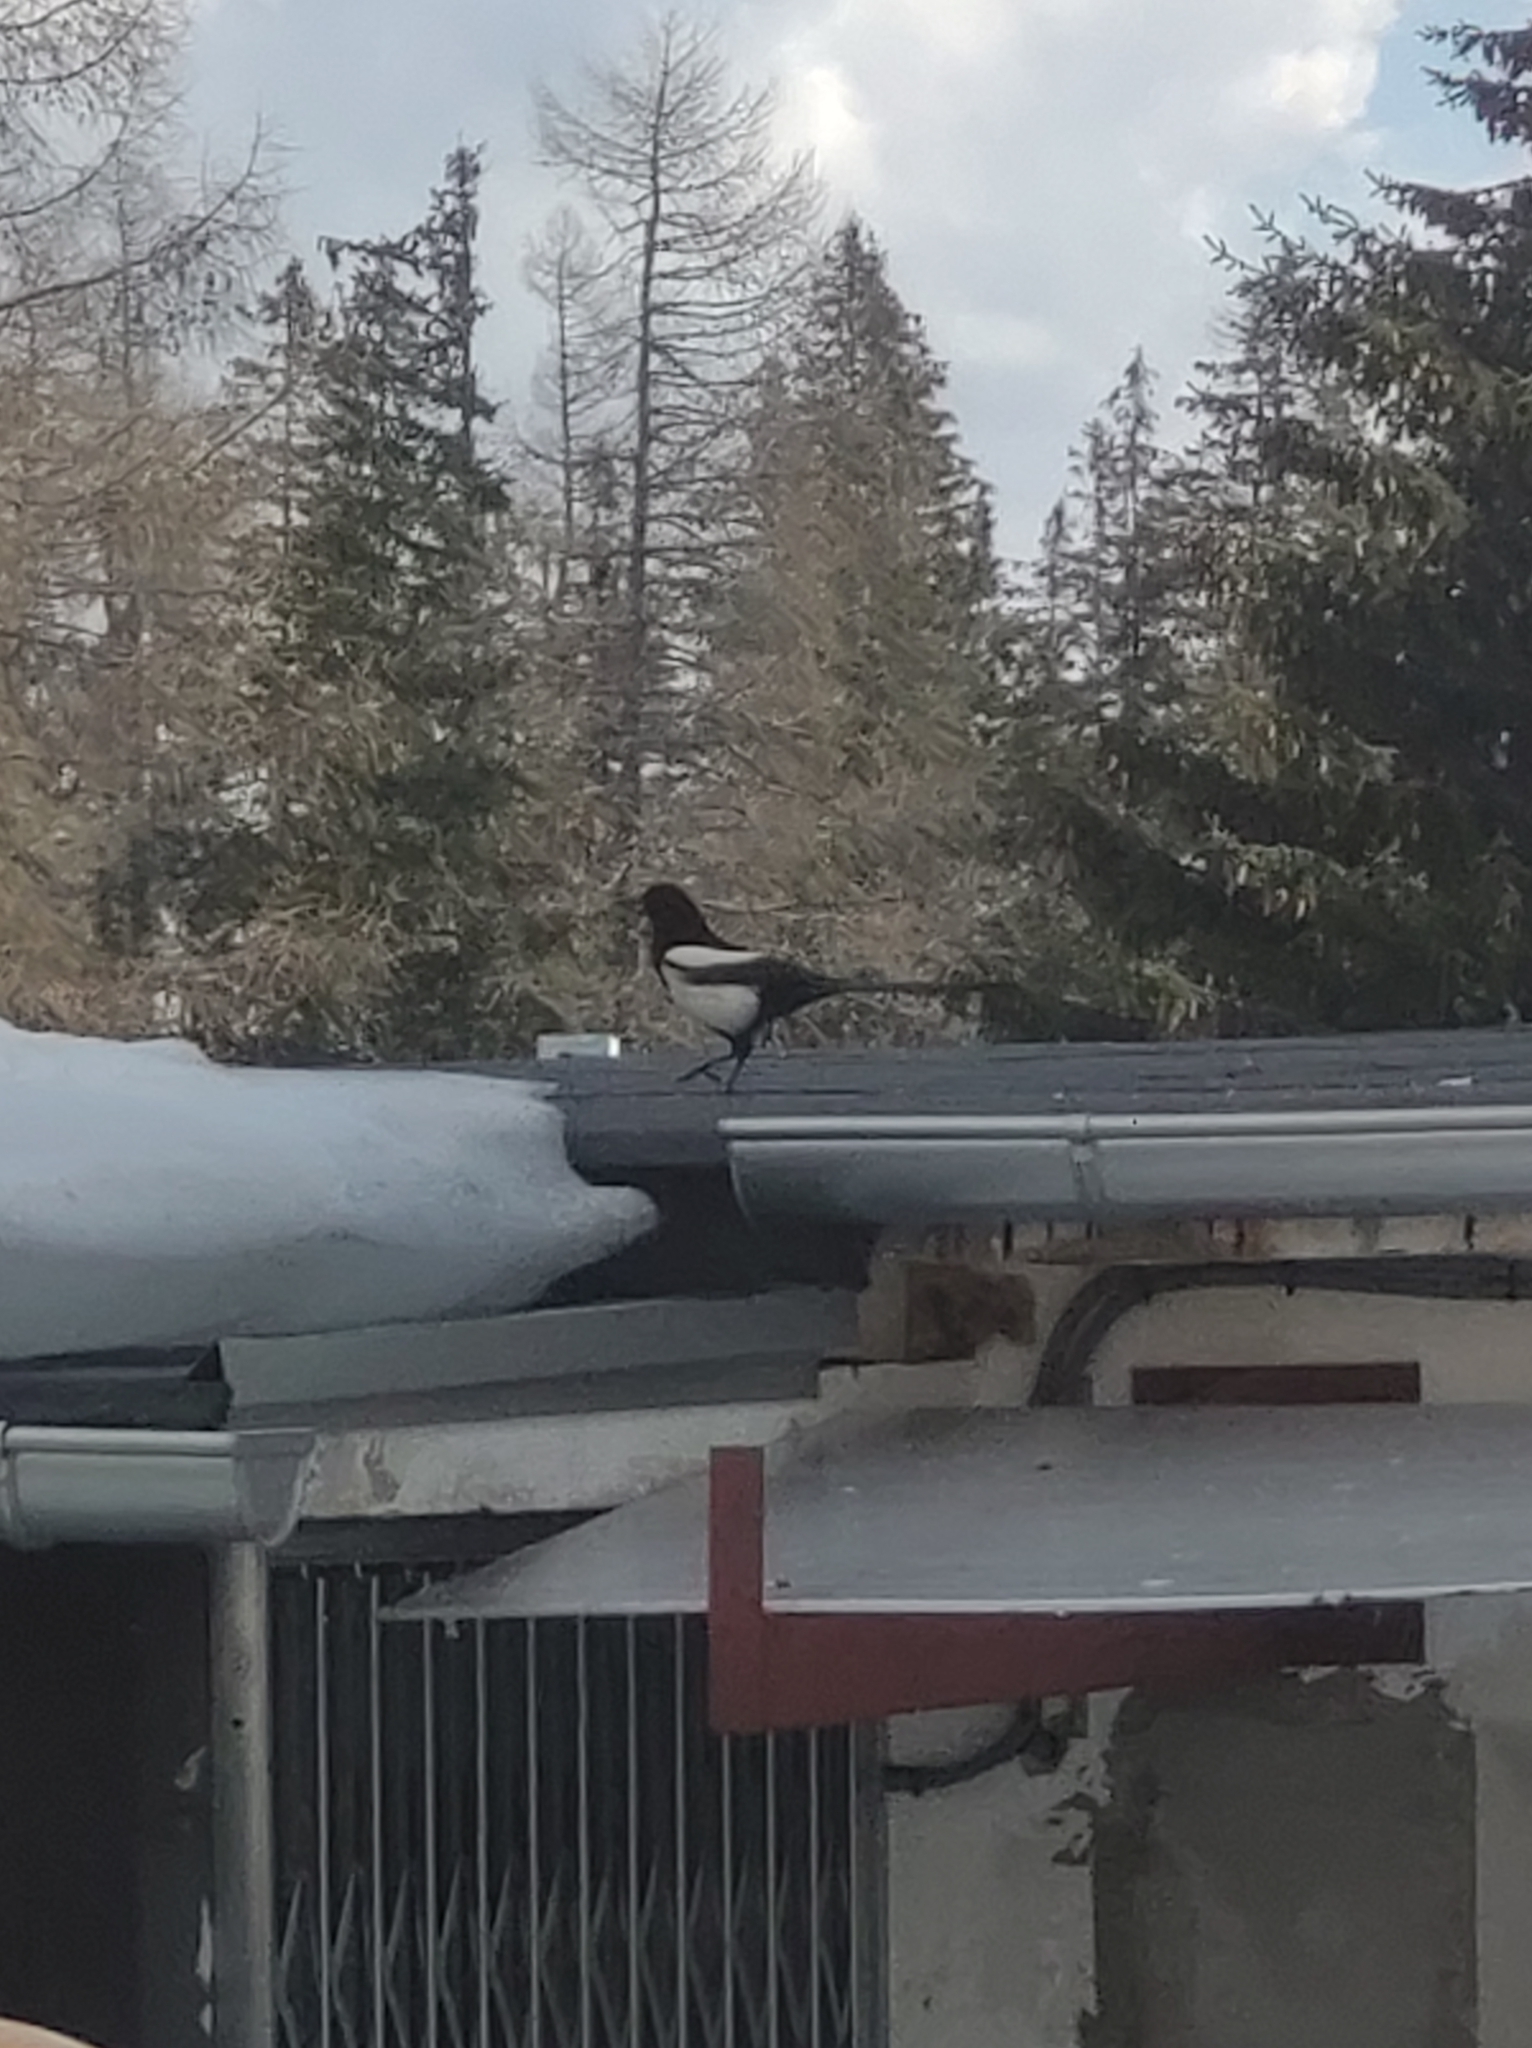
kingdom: Animalia
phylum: Chordata
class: Aves
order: Passeriformes
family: Corvidae
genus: Pica
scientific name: Pica pica
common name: Eurasian magpie
